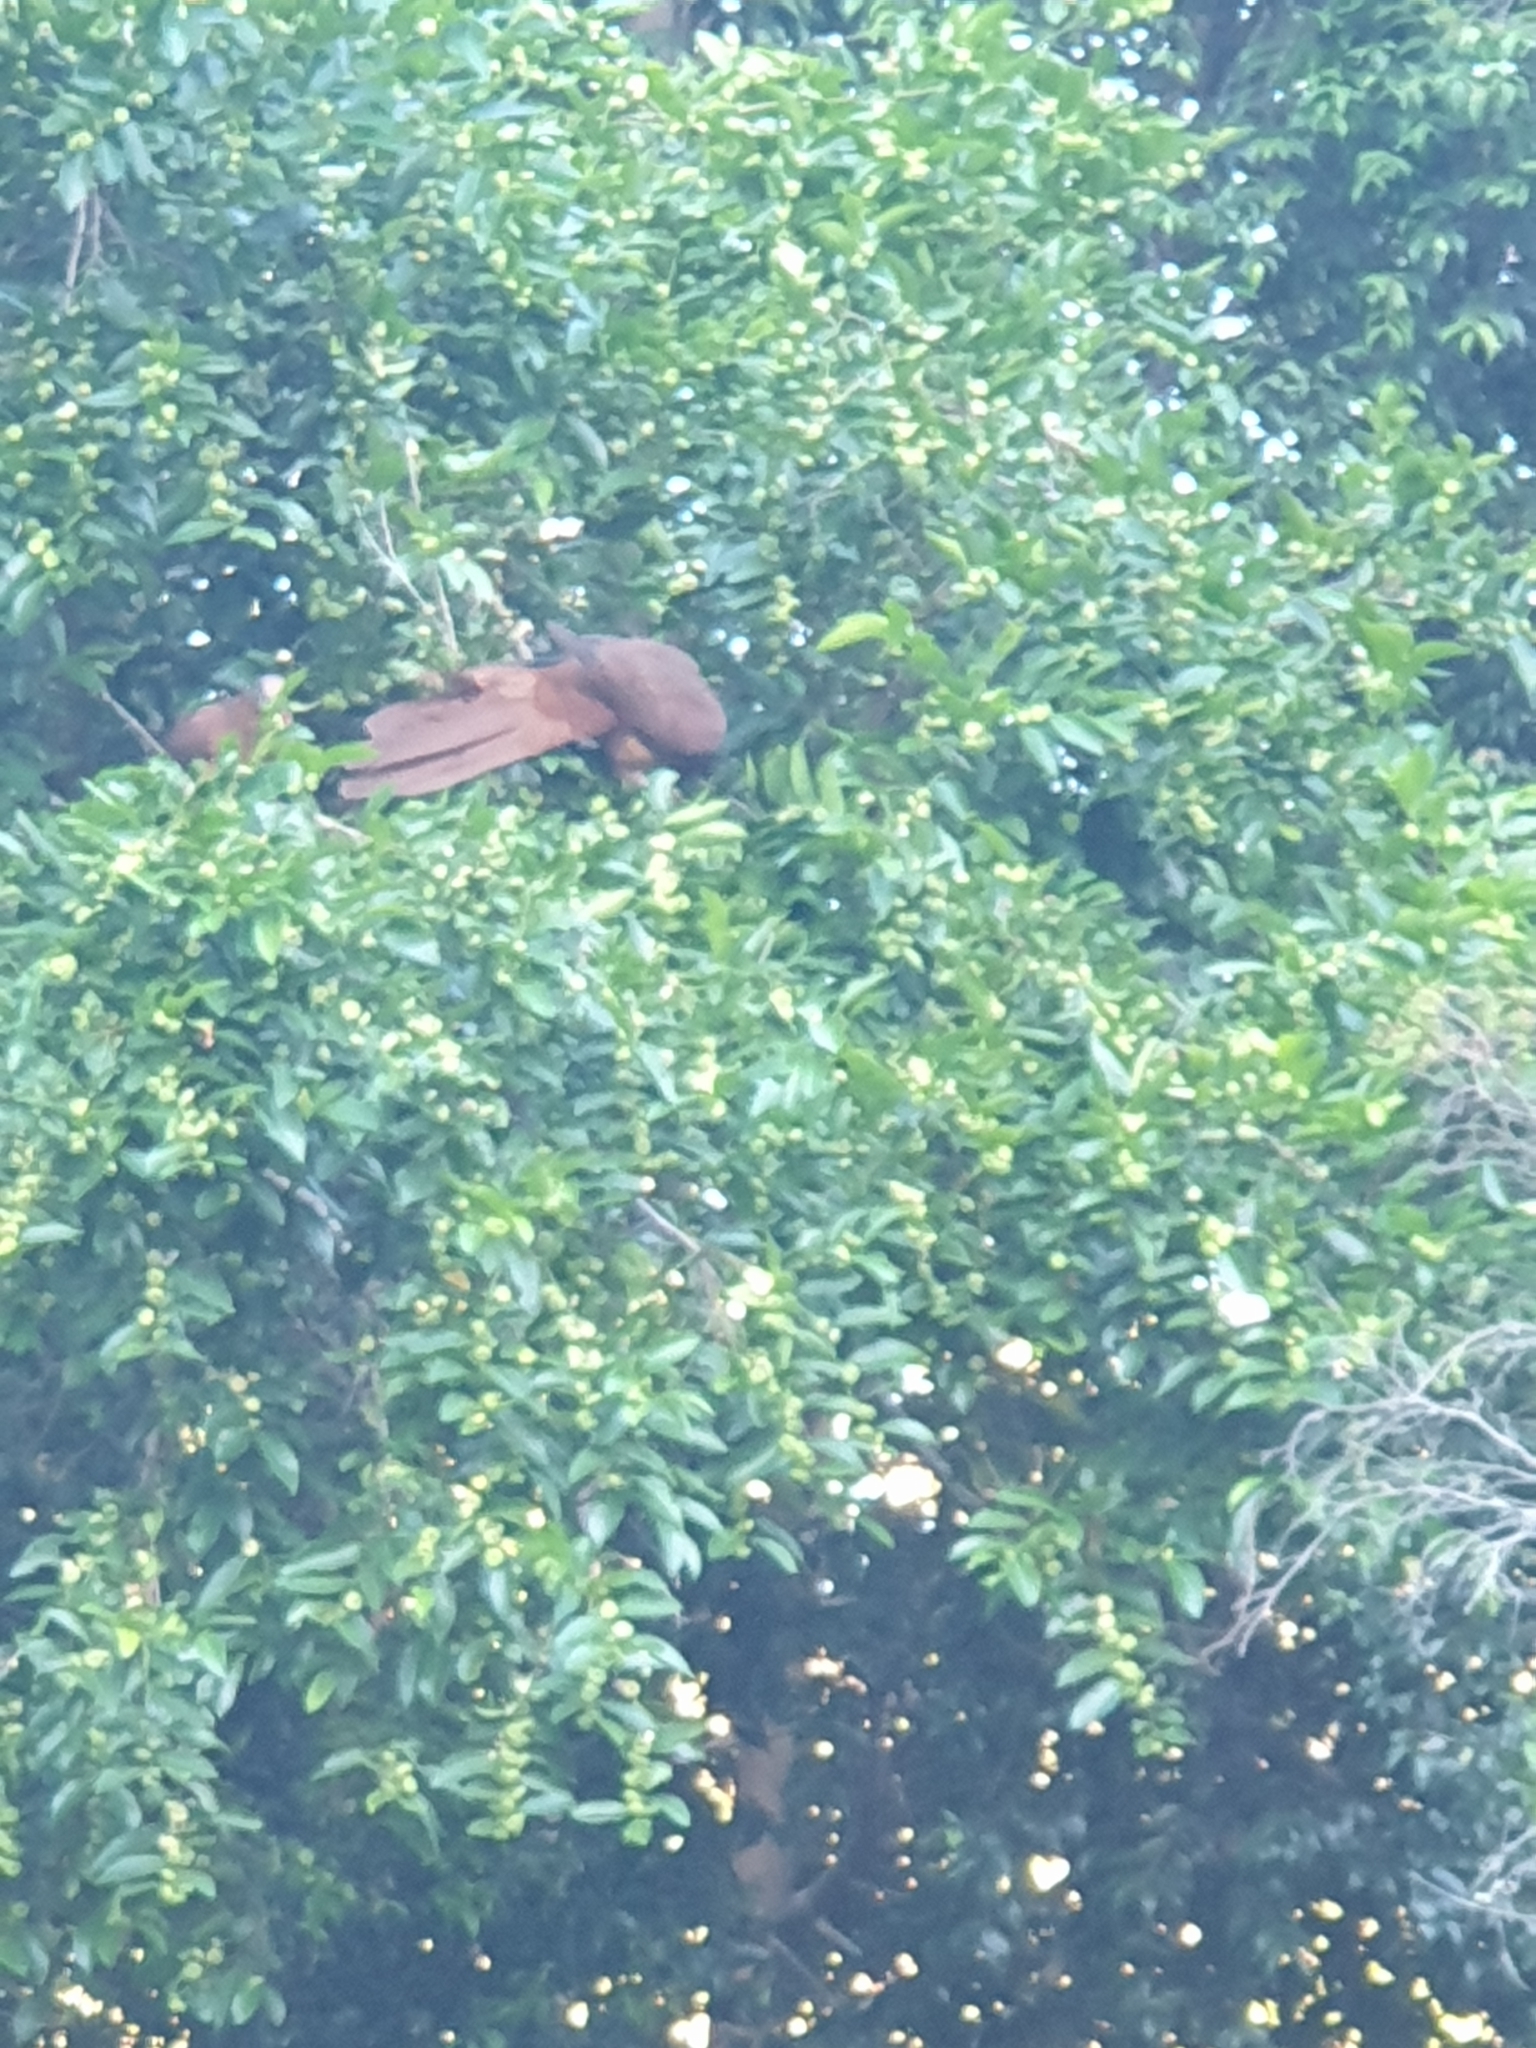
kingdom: Animalia
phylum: Chordata
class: Aves
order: Columbiformes
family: Columbidae
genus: Macropygia
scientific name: Macropygia phasianella
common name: Brown cuckoo-dove
